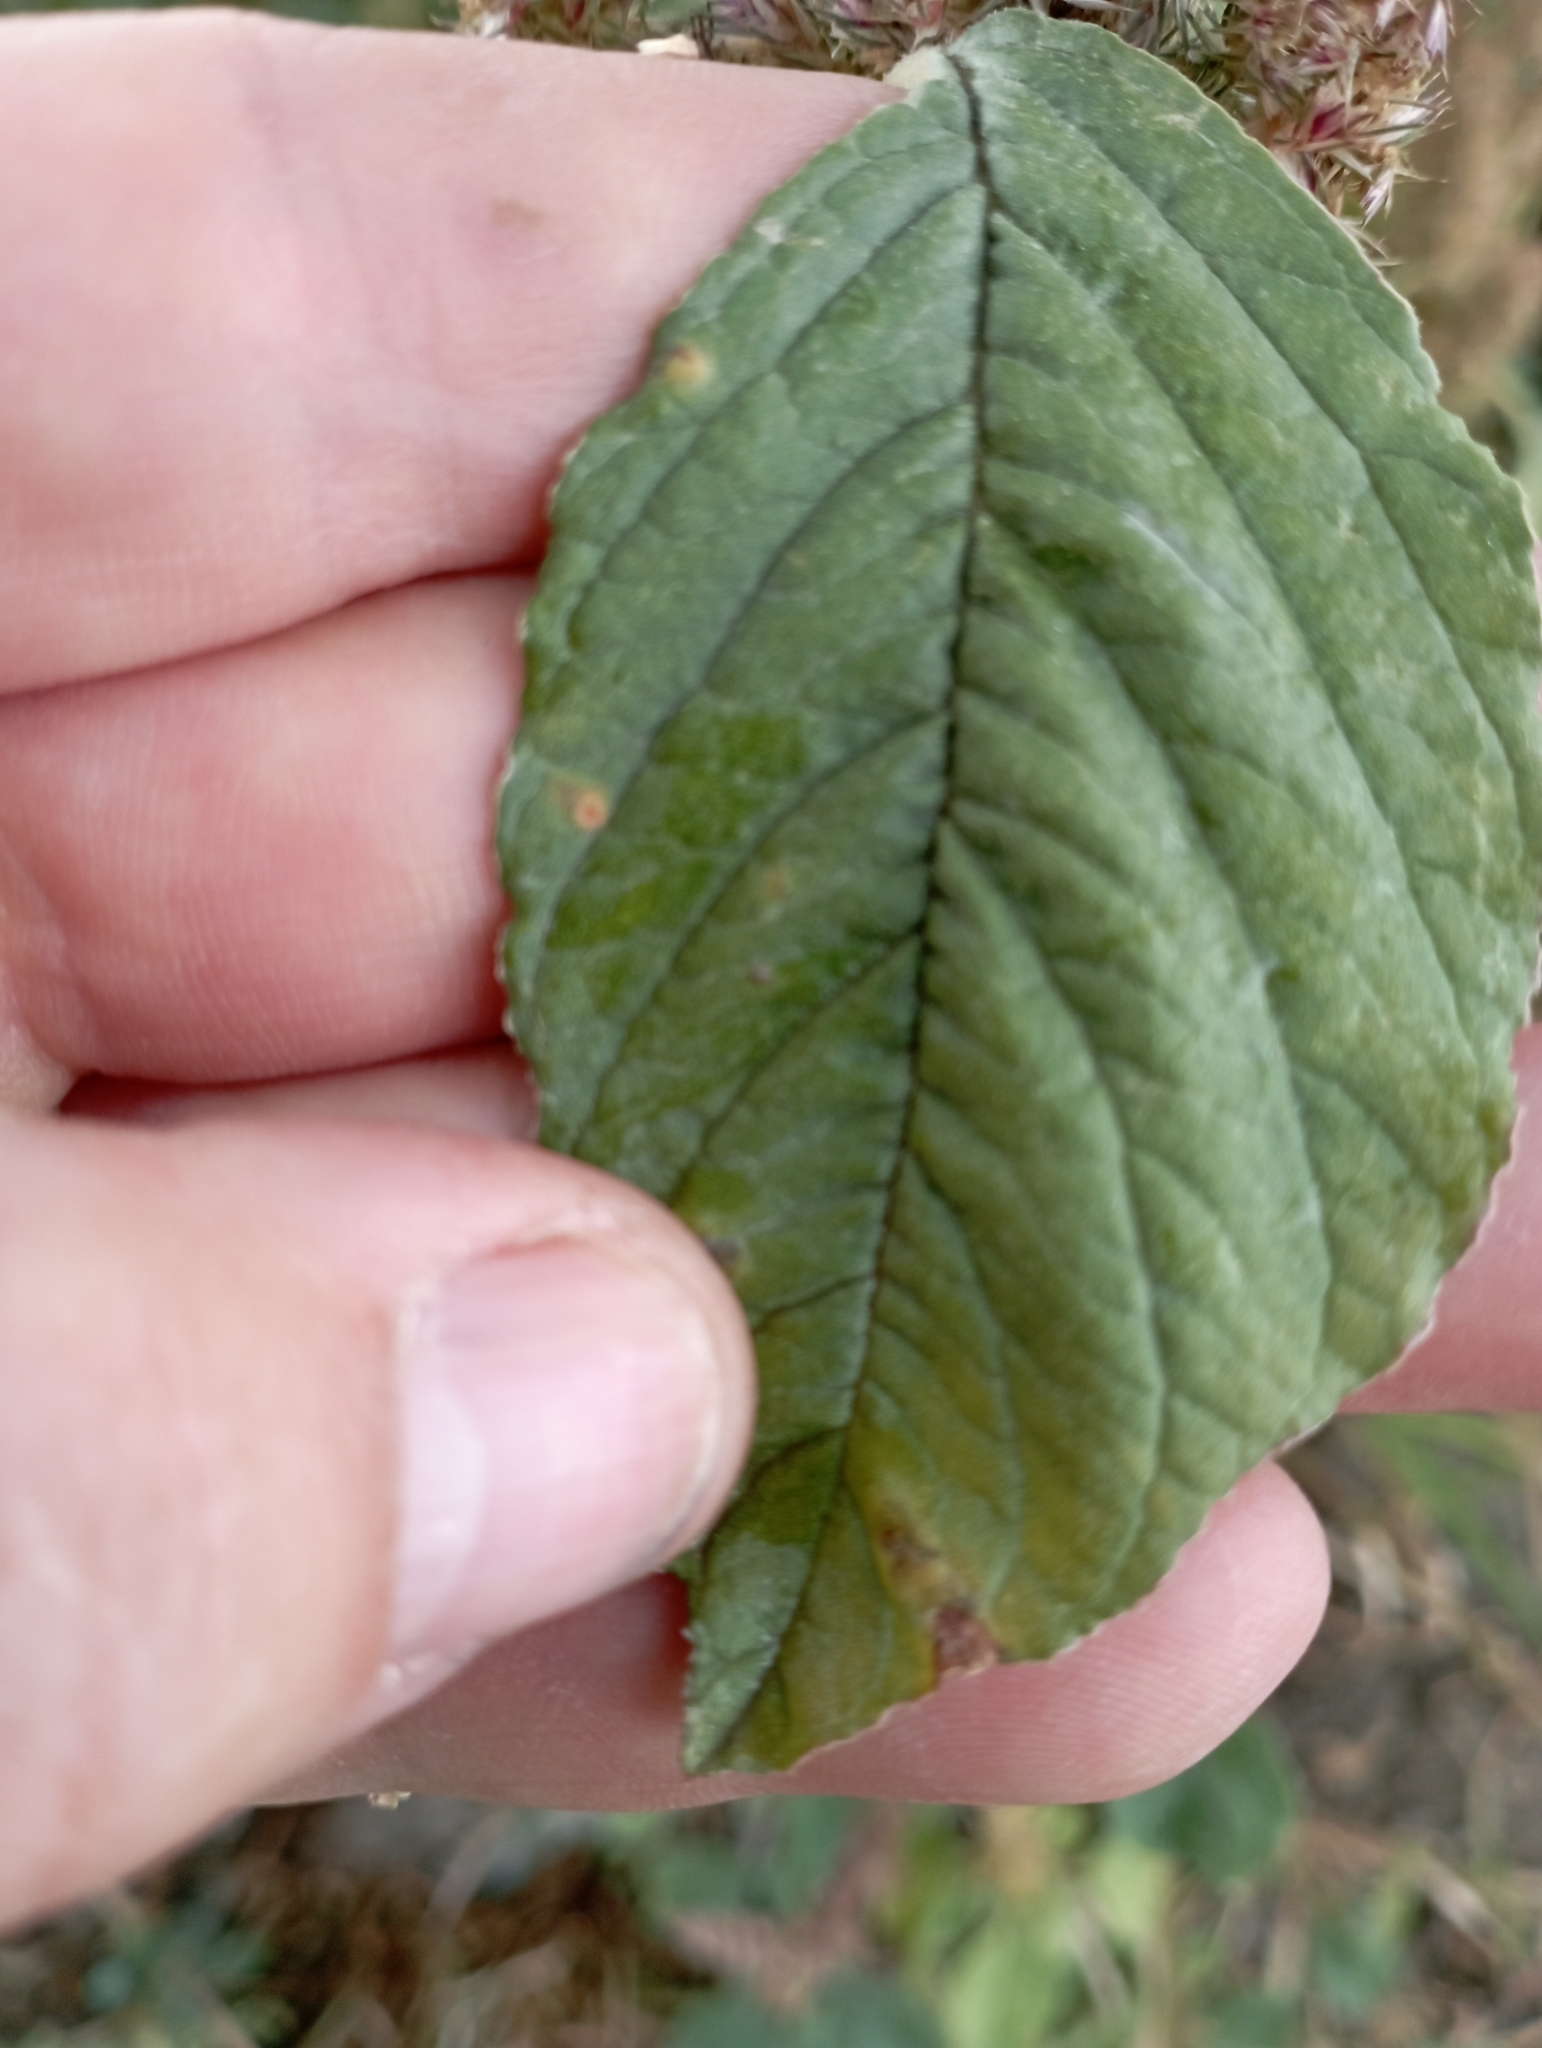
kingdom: Plantae
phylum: Tracheophyta
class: Magnoliopsida
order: Caryophyllales
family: Amaranthaceae
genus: Amaranthus
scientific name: Amaranthus retroflexus
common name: Redroot amaranth
